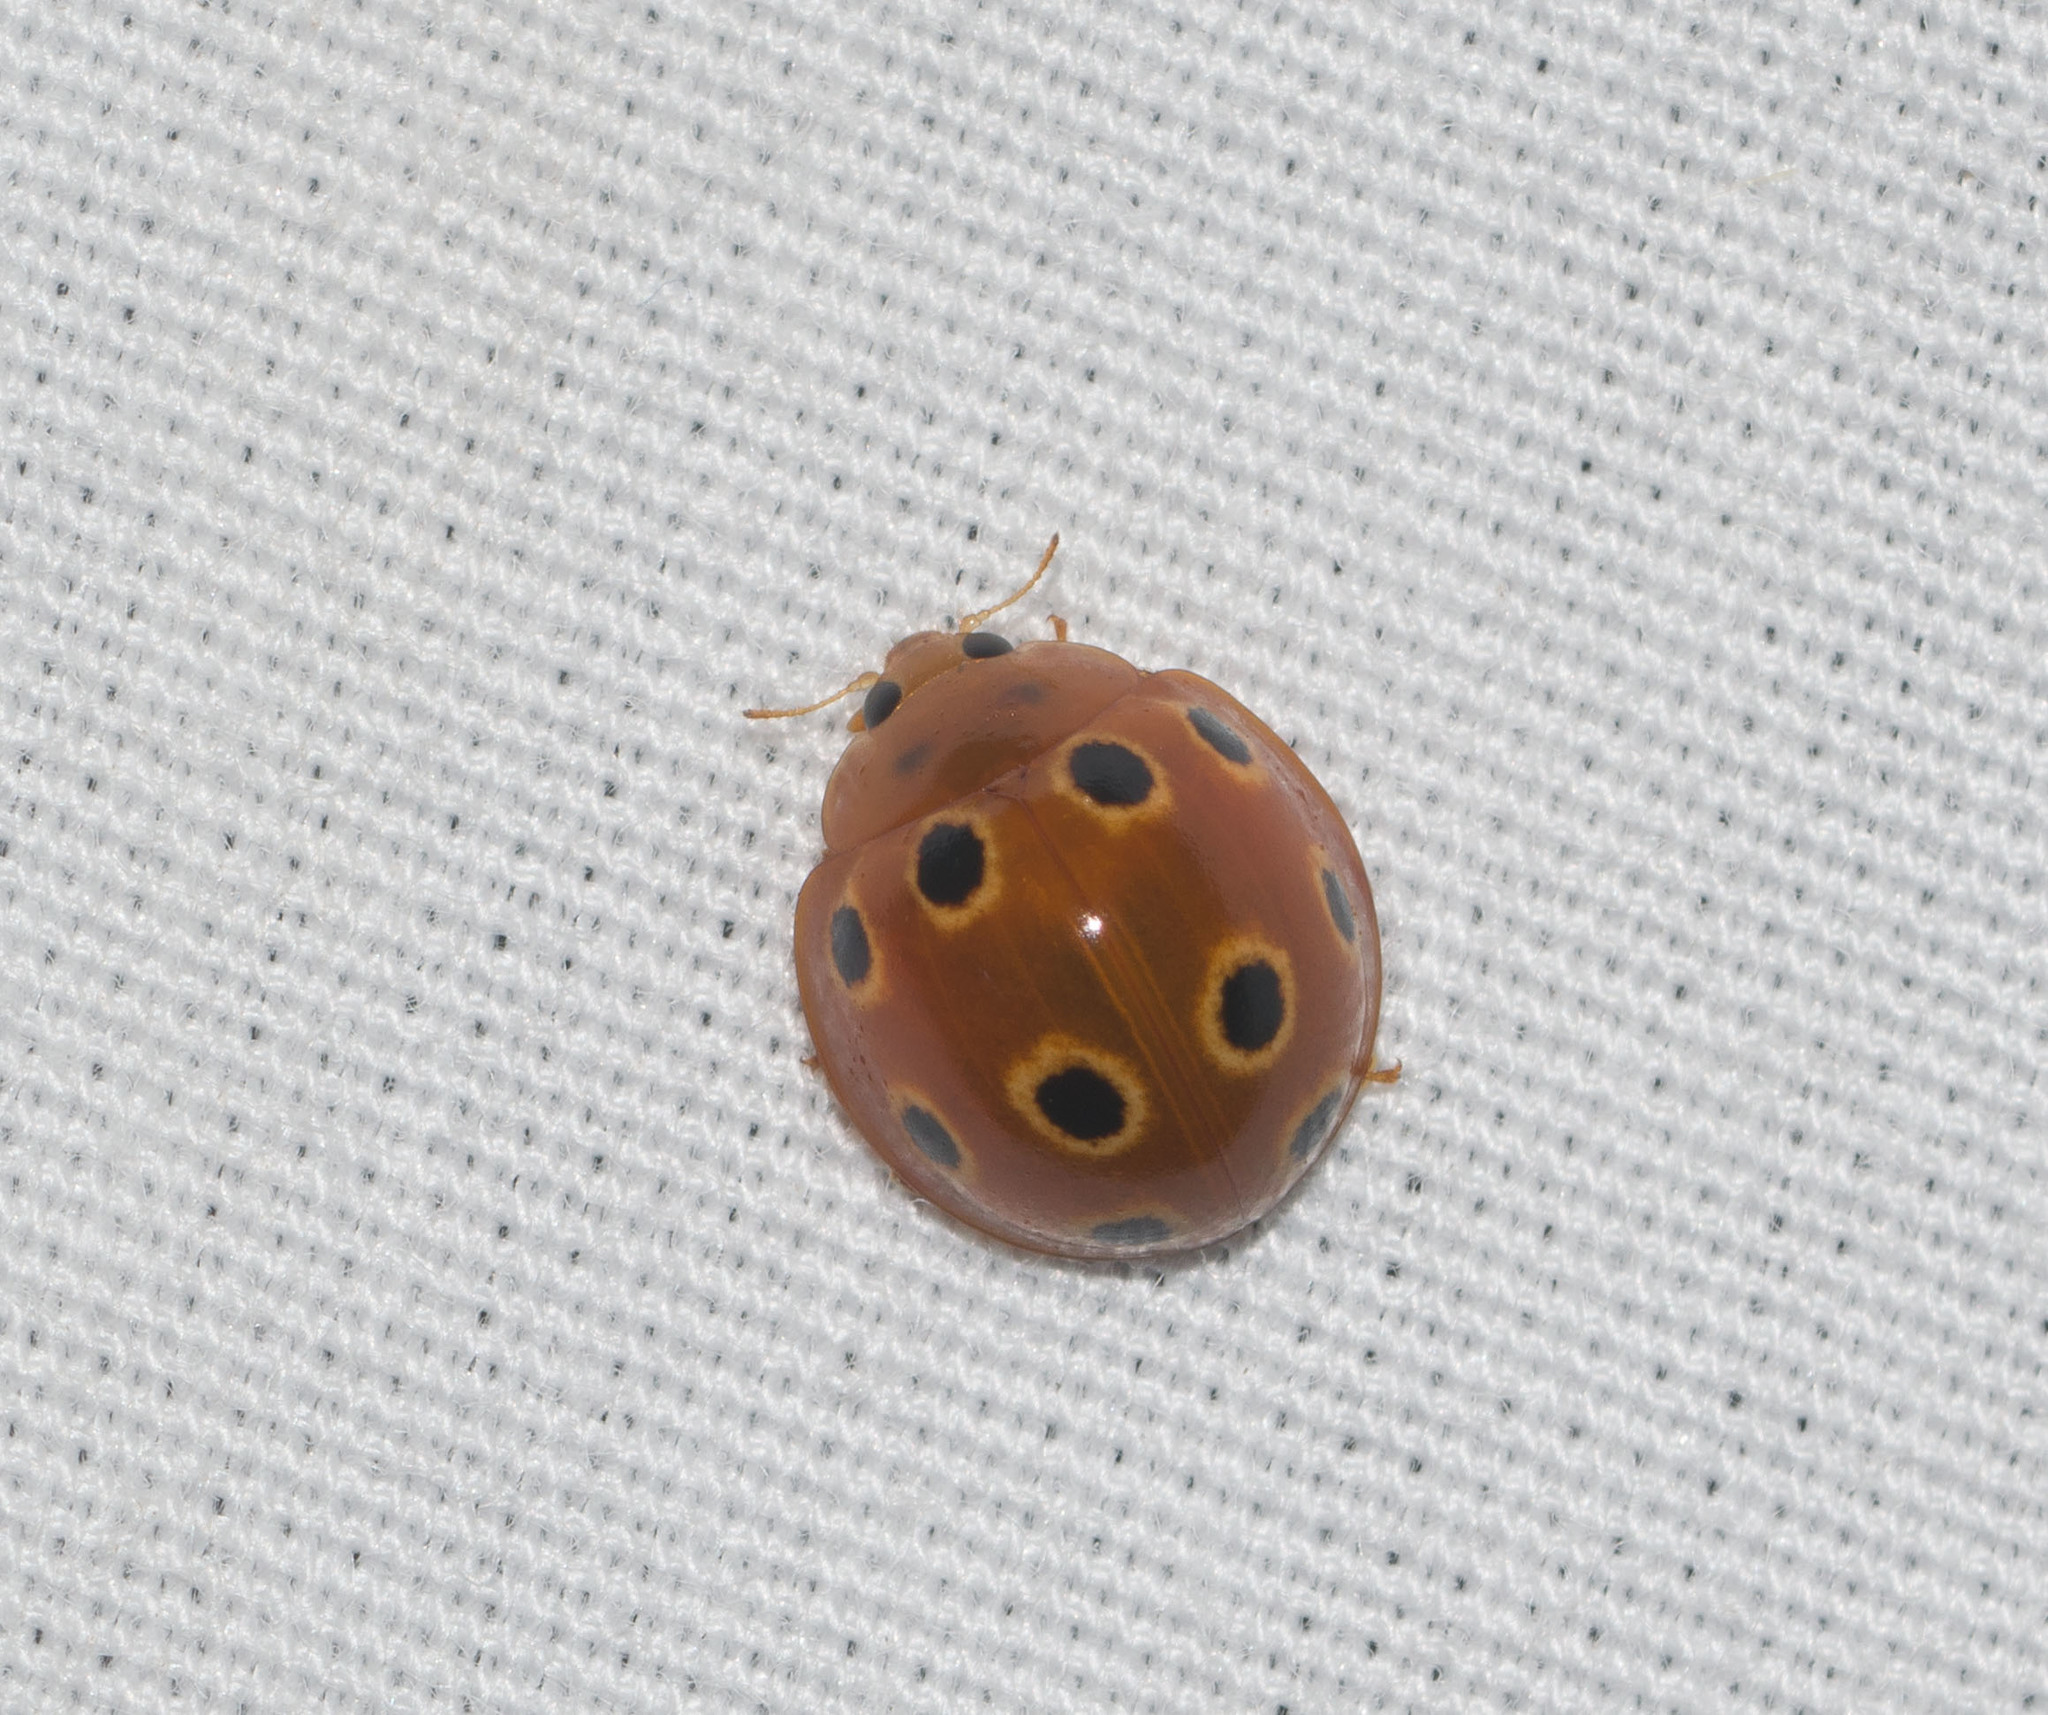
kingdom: Animalia
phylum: Arthropoda
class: Insecta
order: Coleoptera
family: Coccinellidae
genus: Microcaria
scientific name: Microcaria
